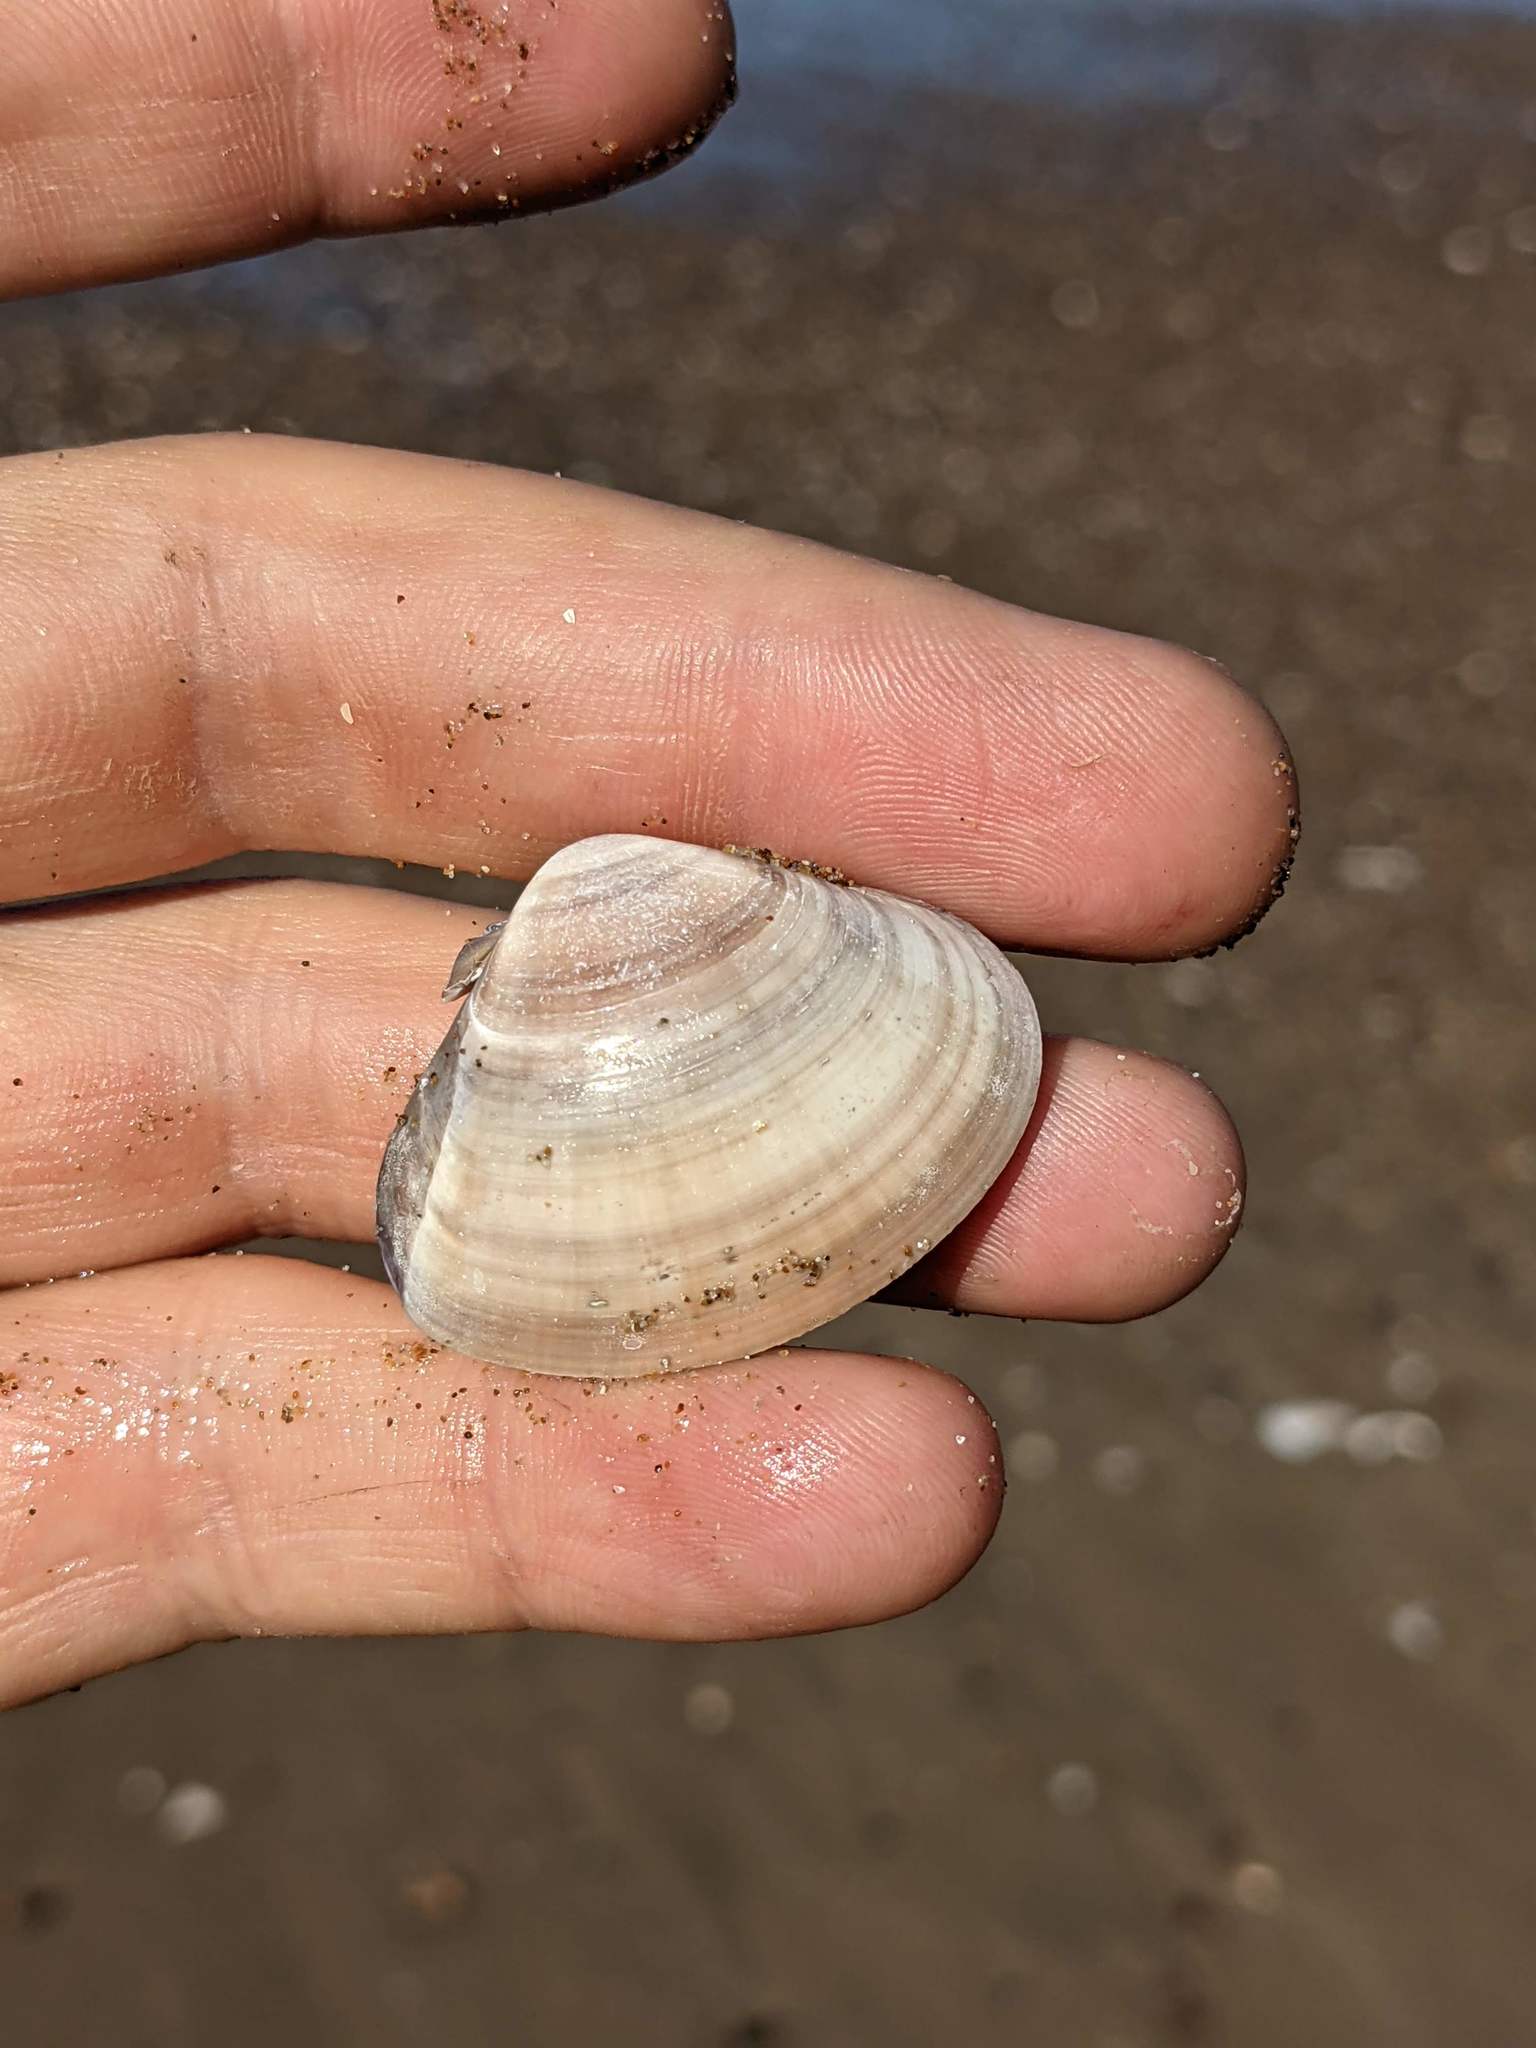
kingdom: Animalia
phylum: Mollusca
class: Bivalvia
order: Venerida
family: Veneridae
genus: Tivela
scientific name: Tivela stultorum
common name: Pismo clam
